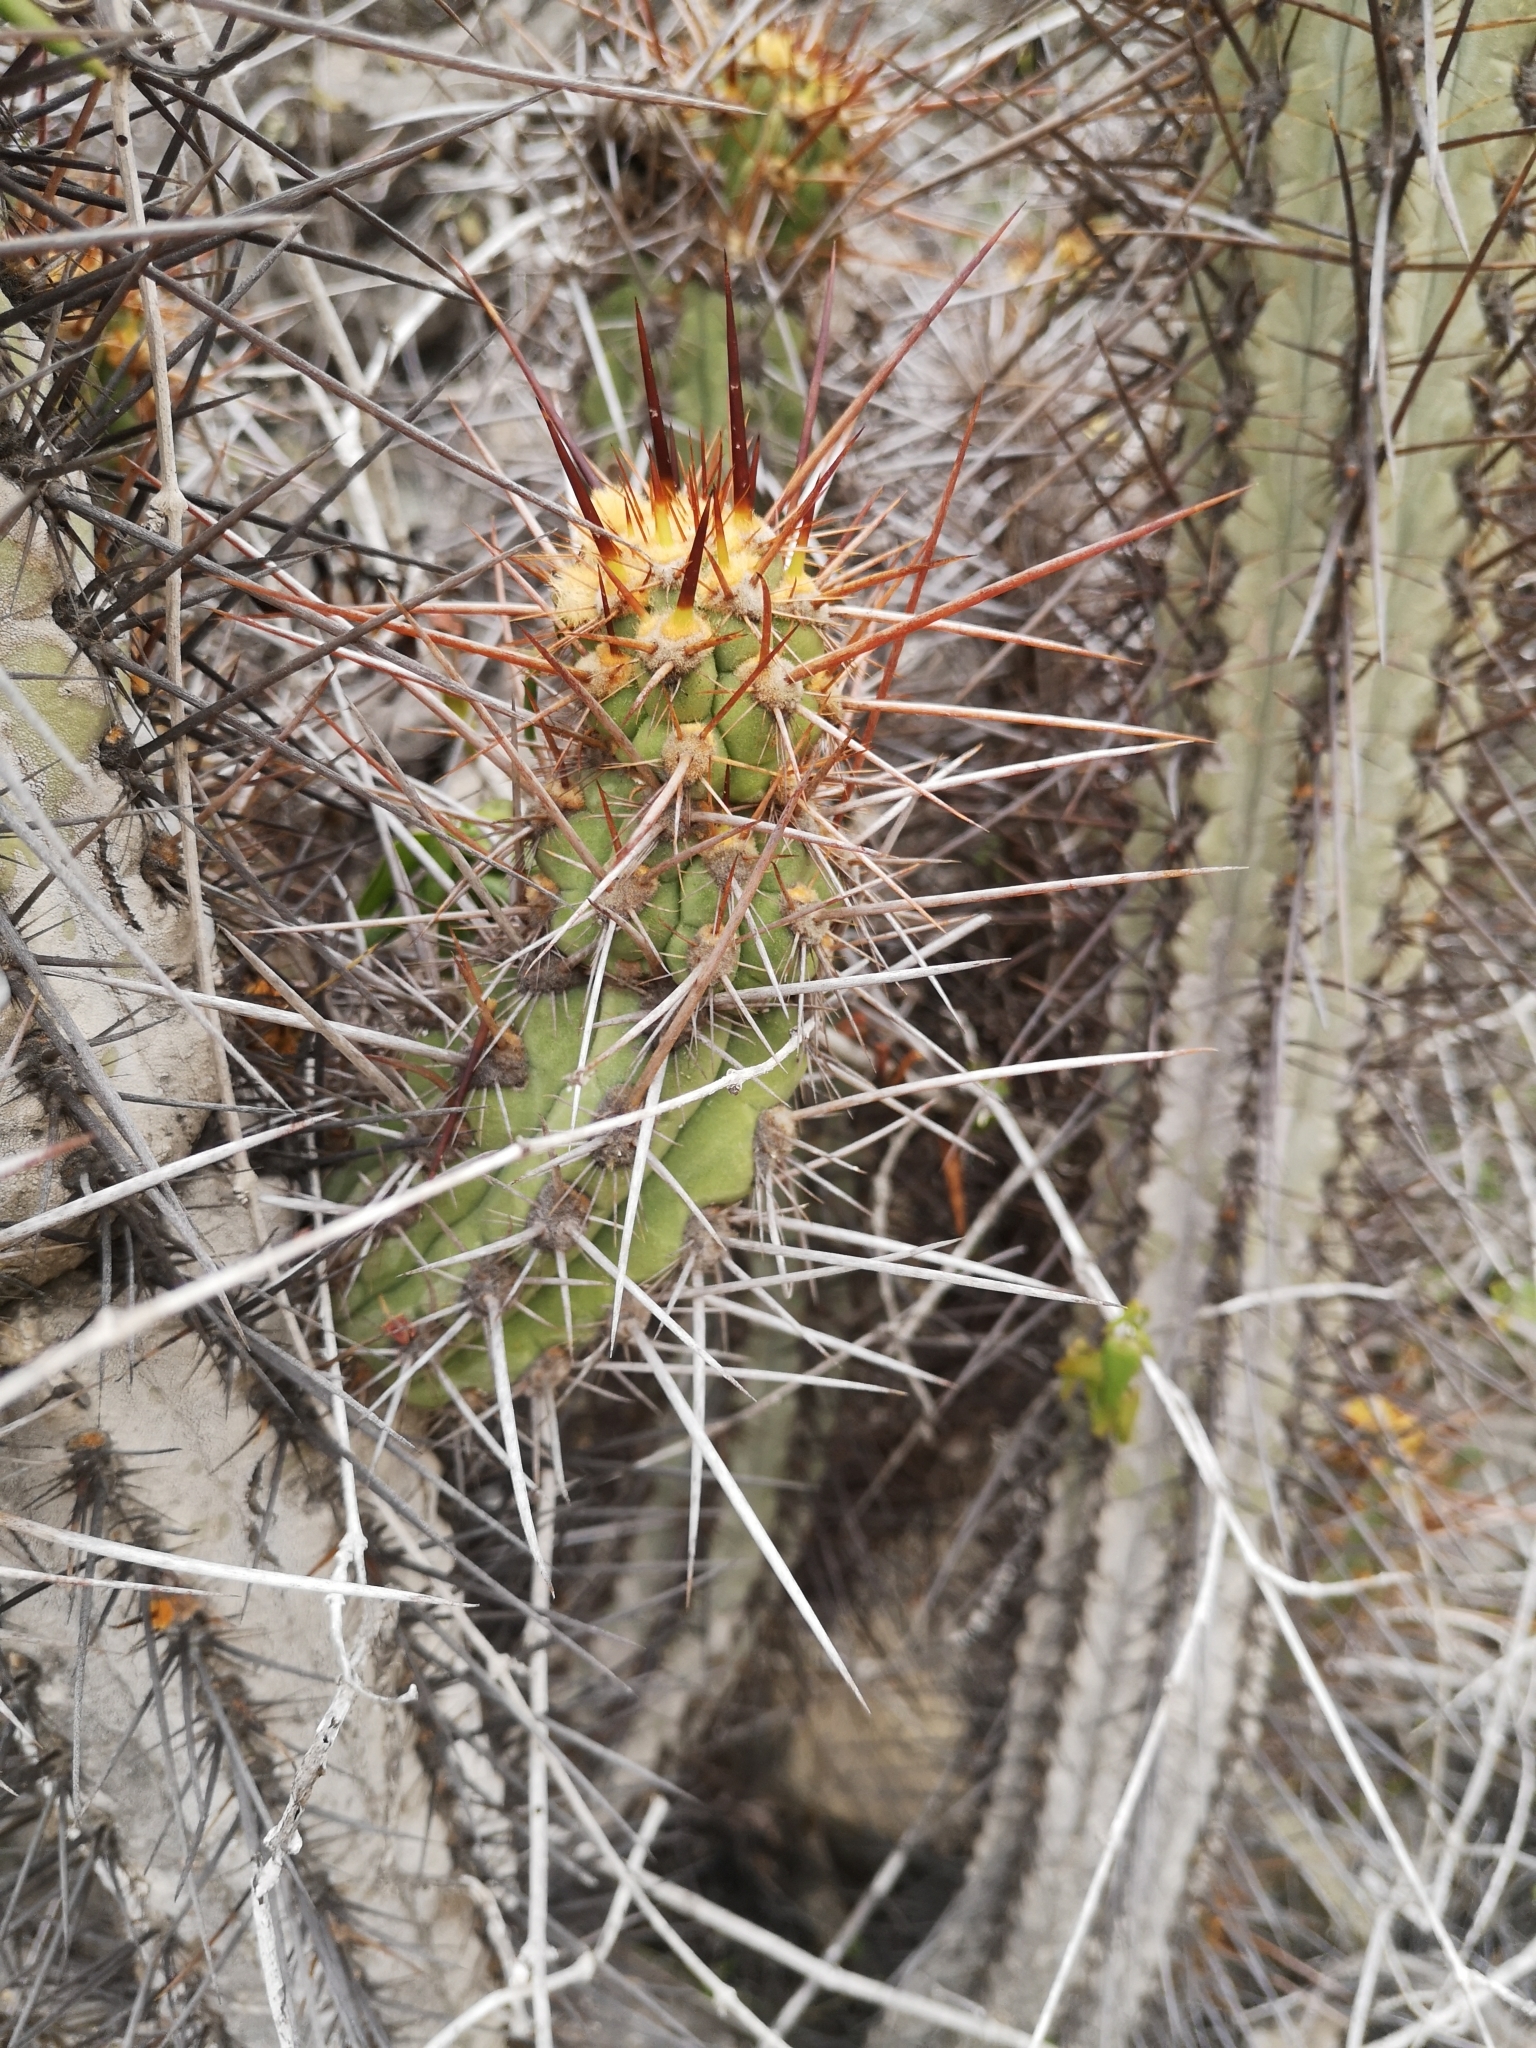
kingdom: Plantae
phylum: Tracheophyta
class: Magnoliopsida
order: Caryophyllales
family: Cactaceae
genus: Leucostele
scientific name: Leucostele deserticola
